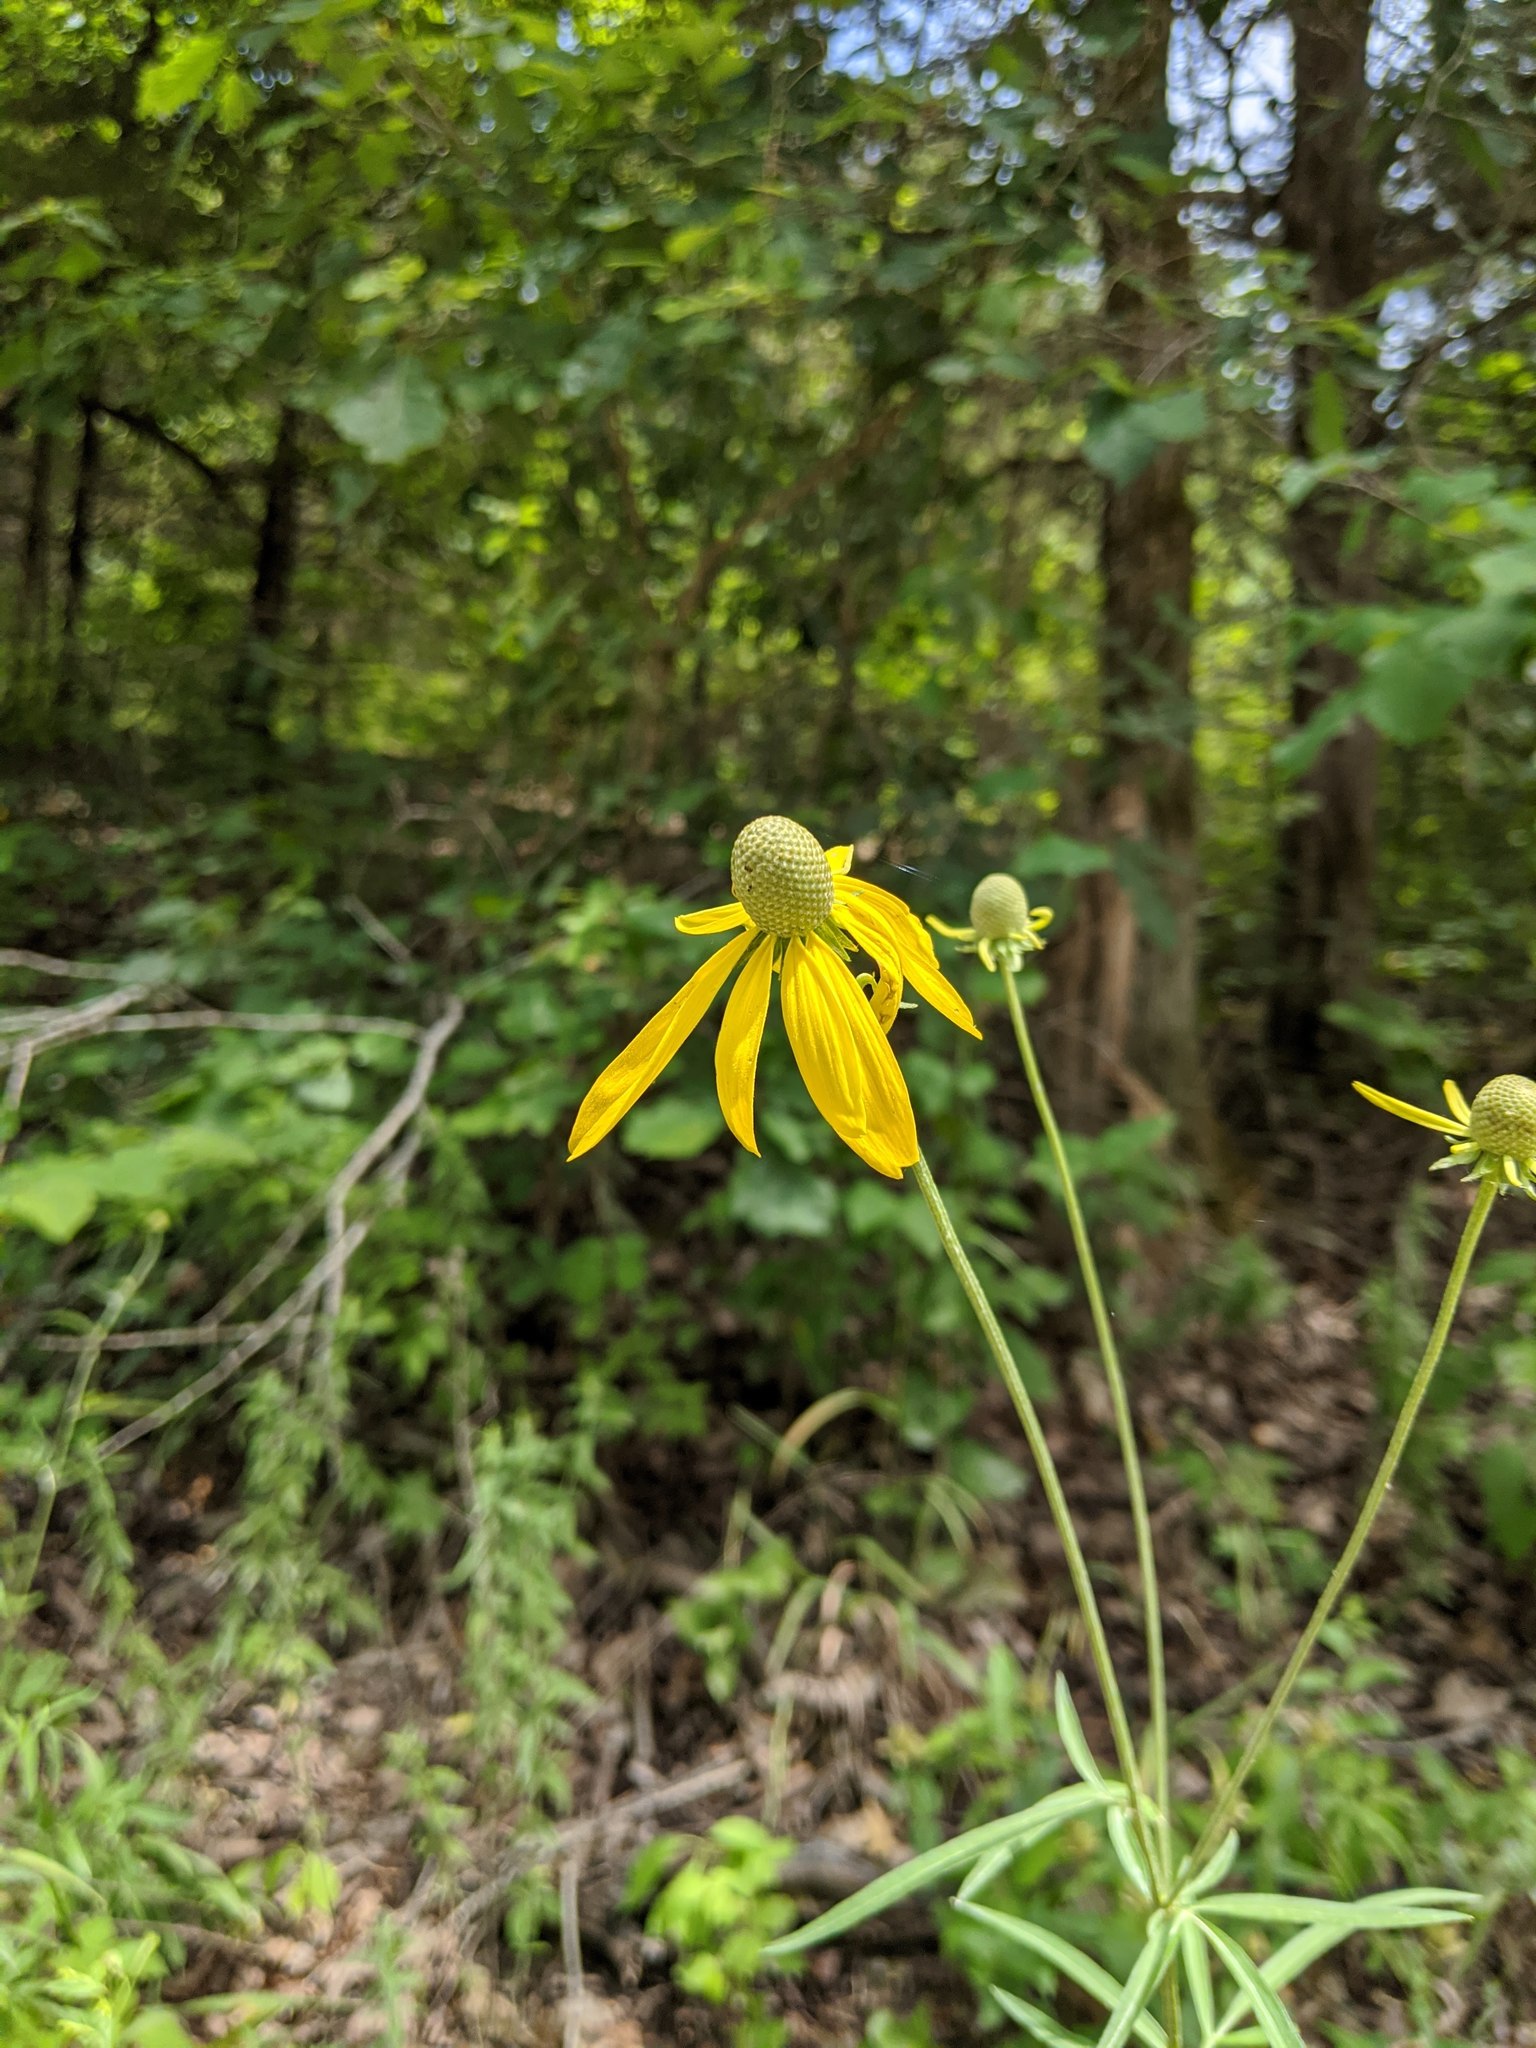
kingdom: Plantae
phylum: Tracheophyta
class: Magnoliopsida
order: Asterales
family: Asteraceae
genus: Ratibida
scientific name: Ratibida pinnata
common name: Drooping prairie-coneflower
